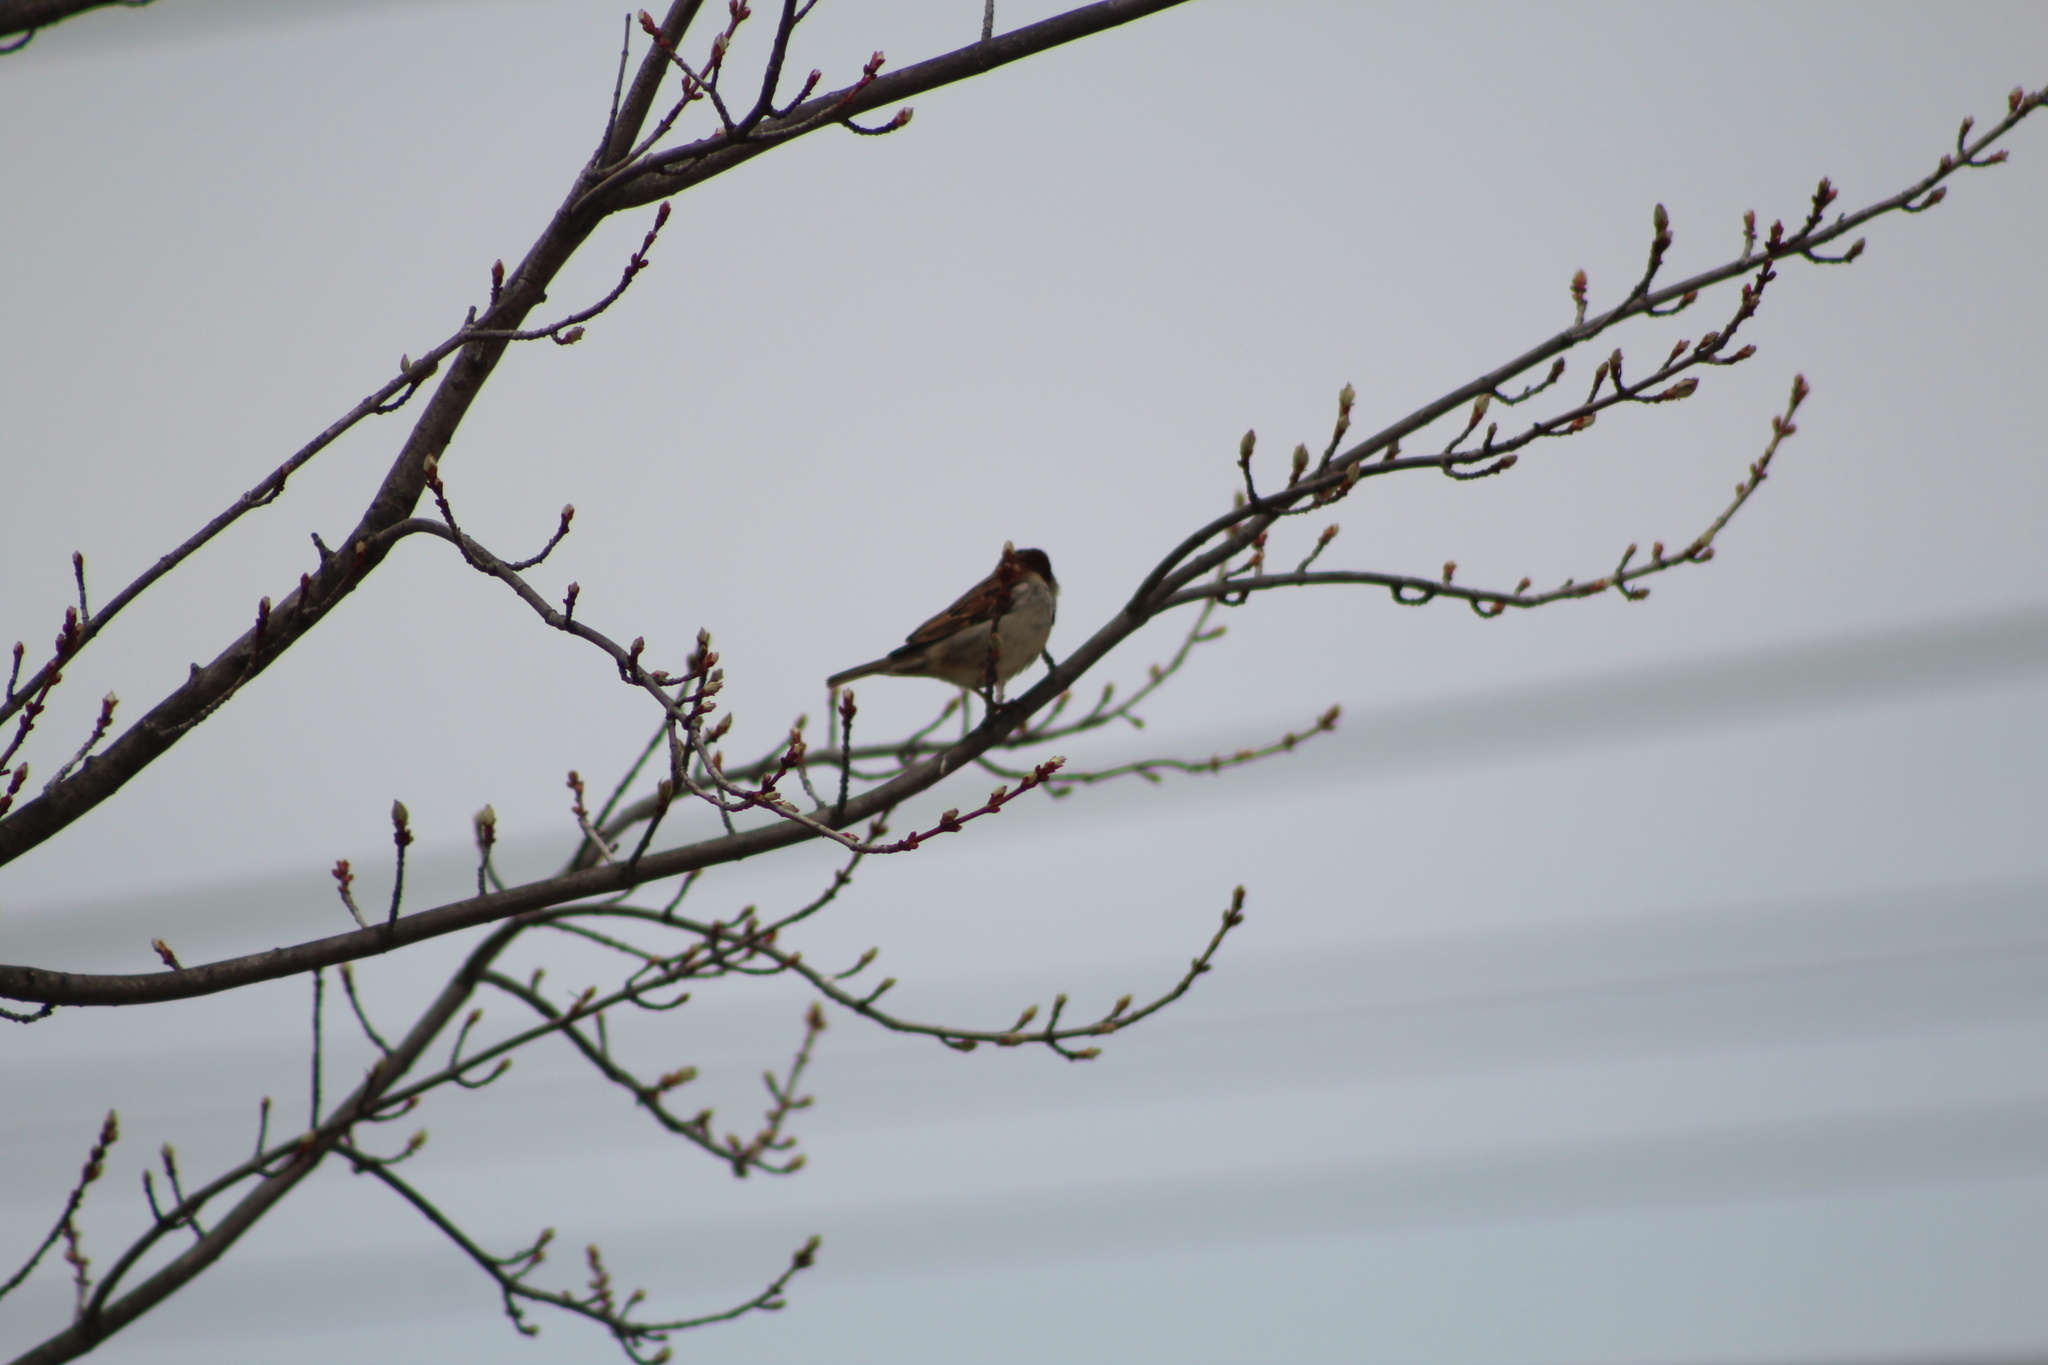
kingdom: Animalia
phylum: Chordata
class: Aves
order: Passeriformes
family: Passeridae
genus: Passer
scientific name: Passer domesticus
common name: House sparrow
